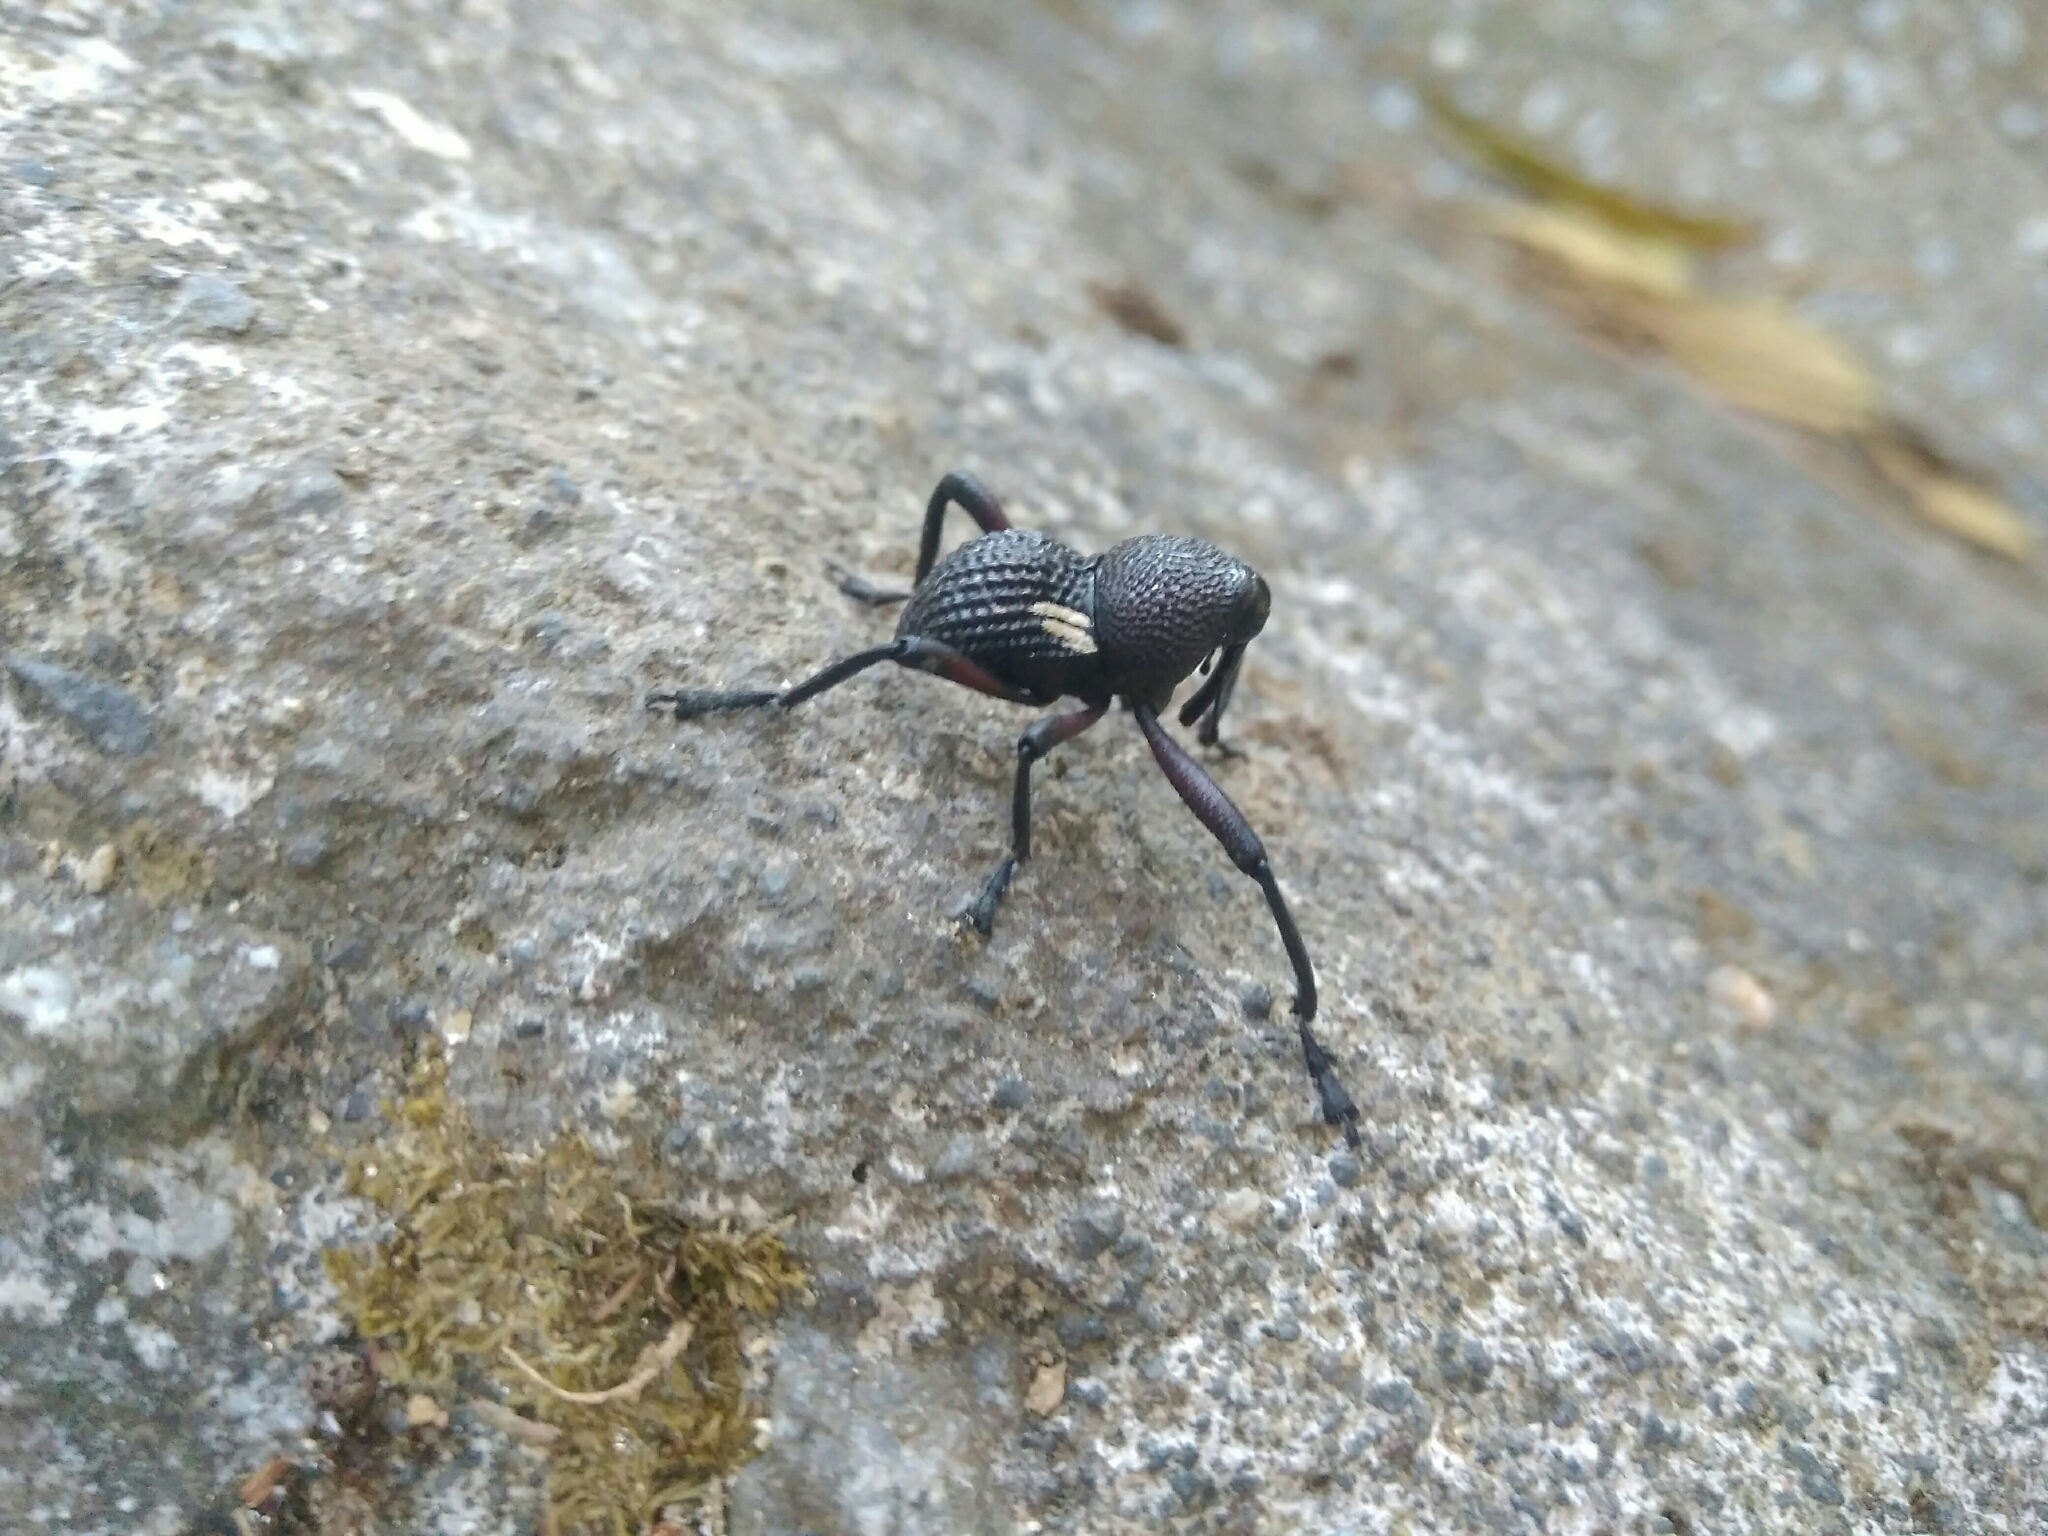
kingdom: Animalia
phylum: Arthropoda
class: Insecta
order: Coleoptera
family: Curculionidae
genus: Rhyephenes
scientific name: Rhyephenes humeralis
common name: Araè±ita chilena del pino
